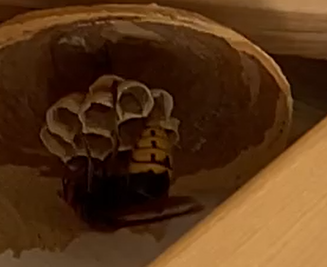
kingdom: Animalia
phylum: Arthropoda
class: Insecta
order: Hymenoptera
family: Vespidae
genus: Vespa
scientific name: Vespa crabro
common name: Hornet
